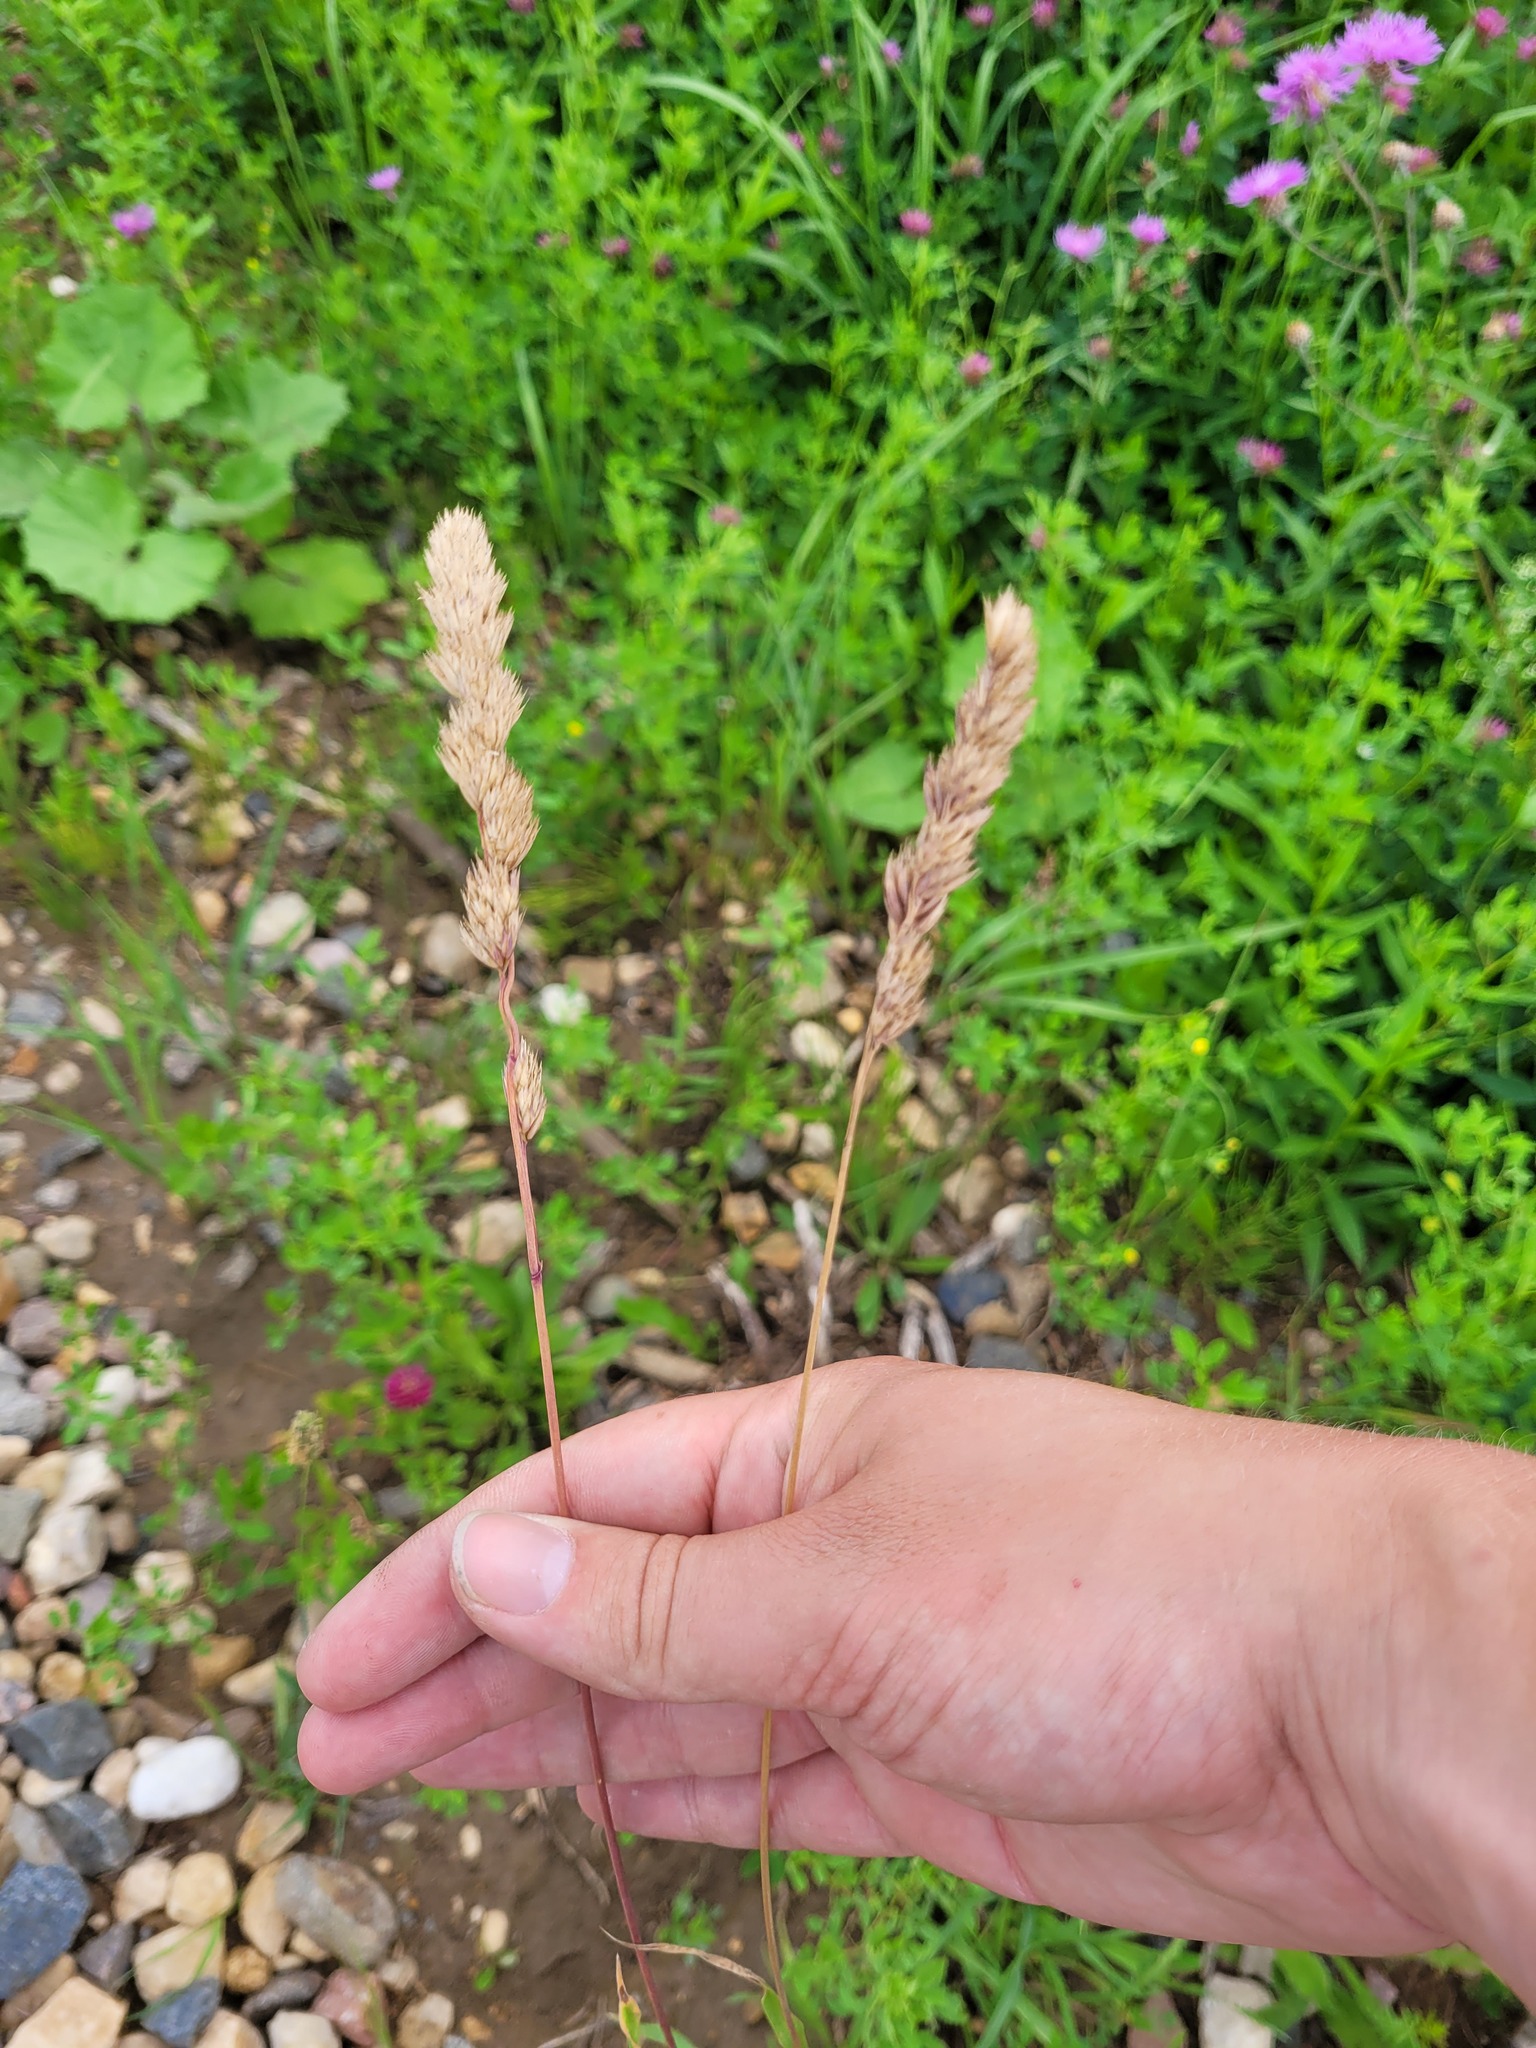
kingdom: Plantae
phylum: Tracheophyta
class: Liliopsida
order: Poales
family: Poaceae
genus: Dactylis
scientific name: Dactylis glomerata
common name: Orchardgrass
